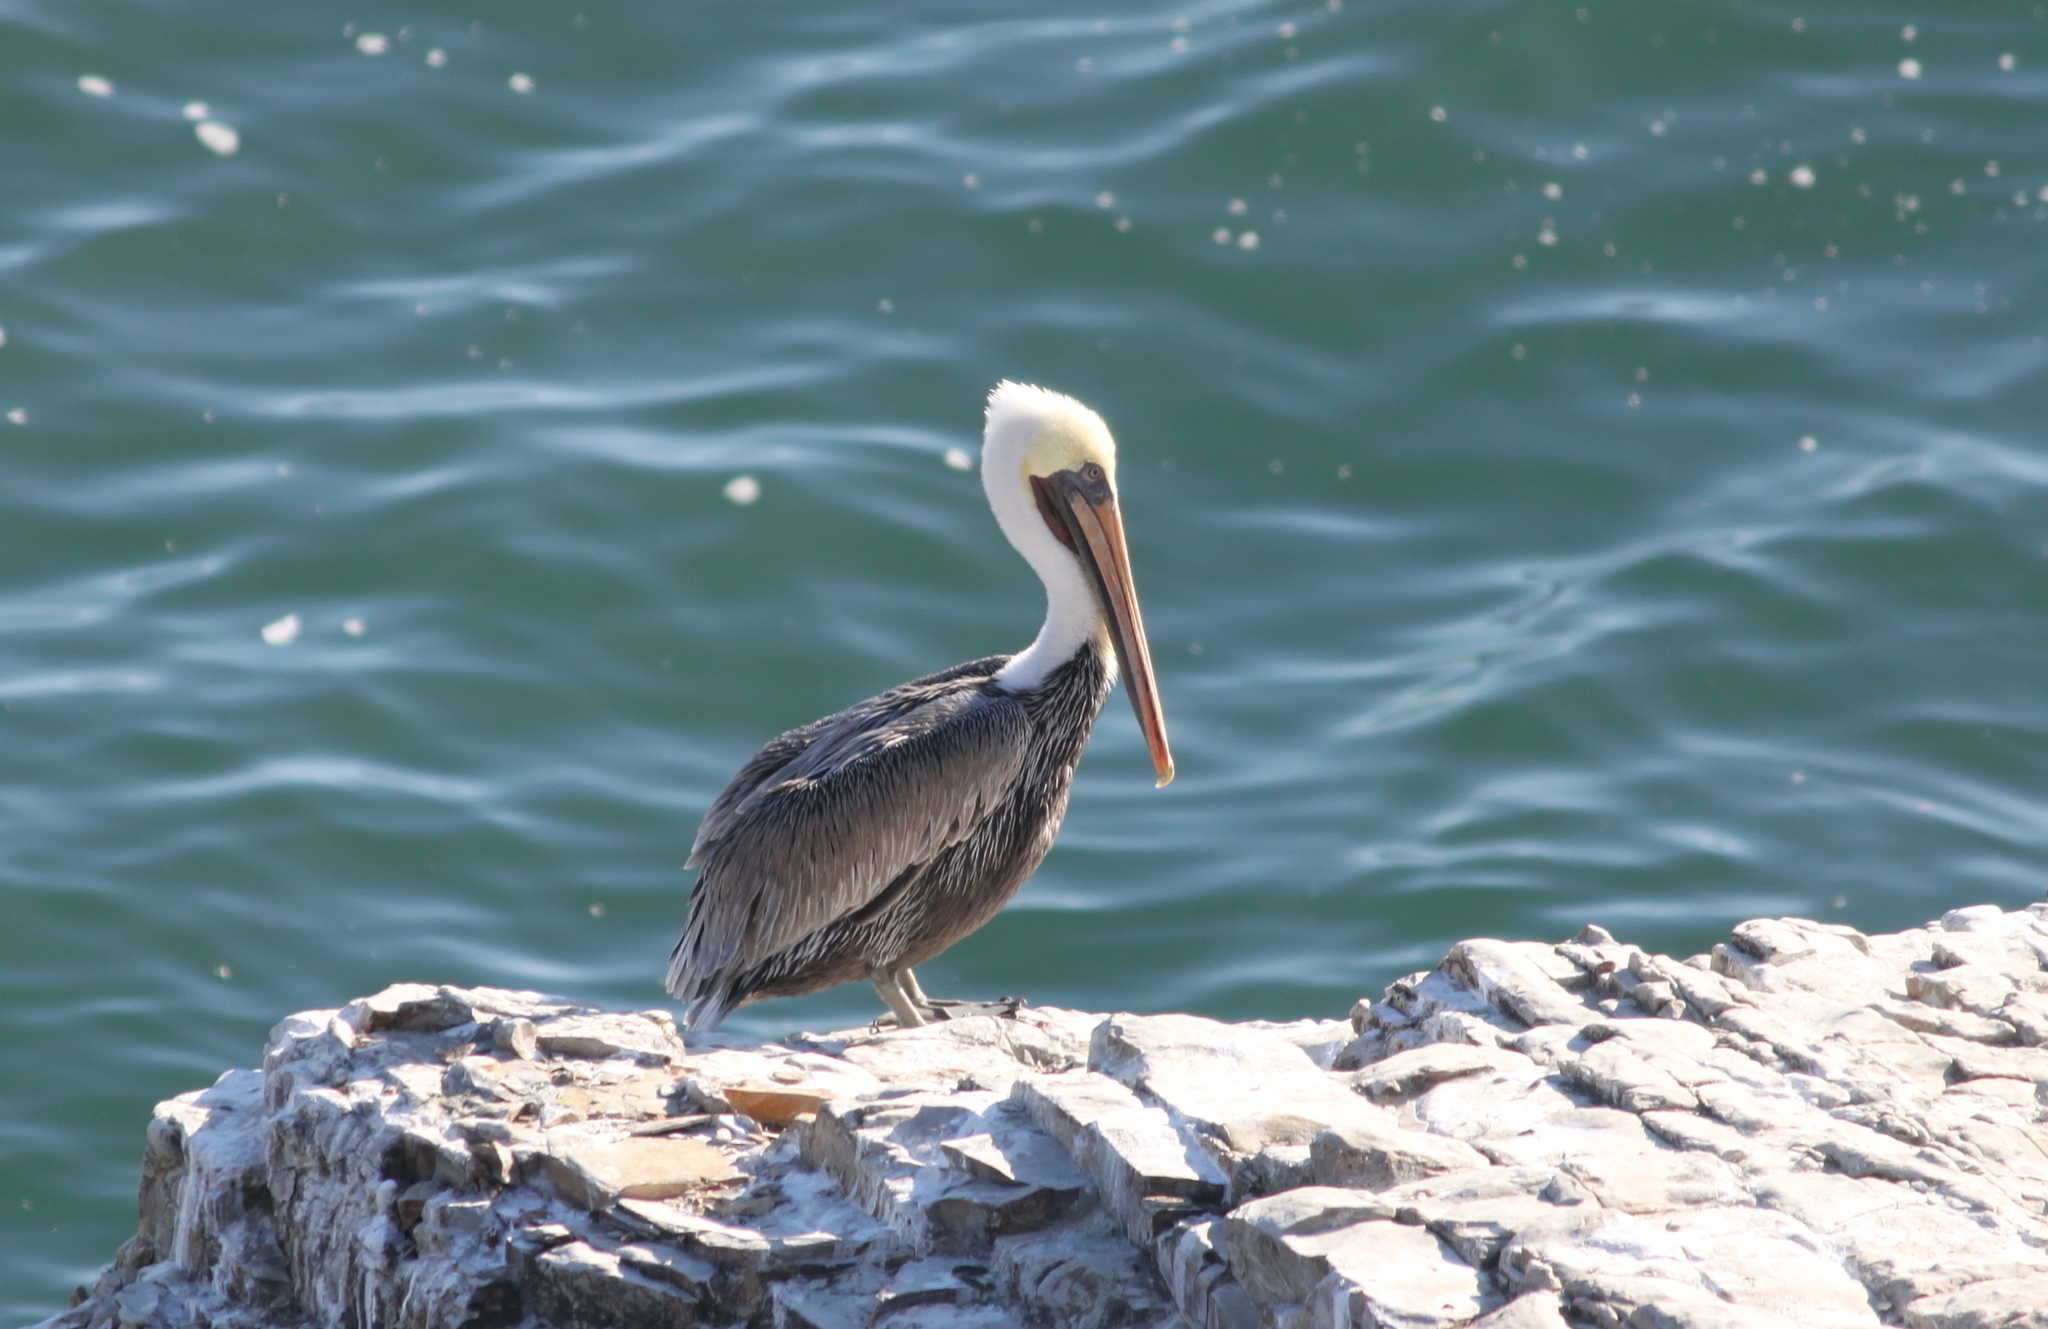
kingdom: Animalia
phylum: Chordata
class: Aves
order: Pelecaniformes
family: Pelecanidae
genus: Pelecanus
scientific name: Pelecanus occidentalis
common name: Brown pelican
